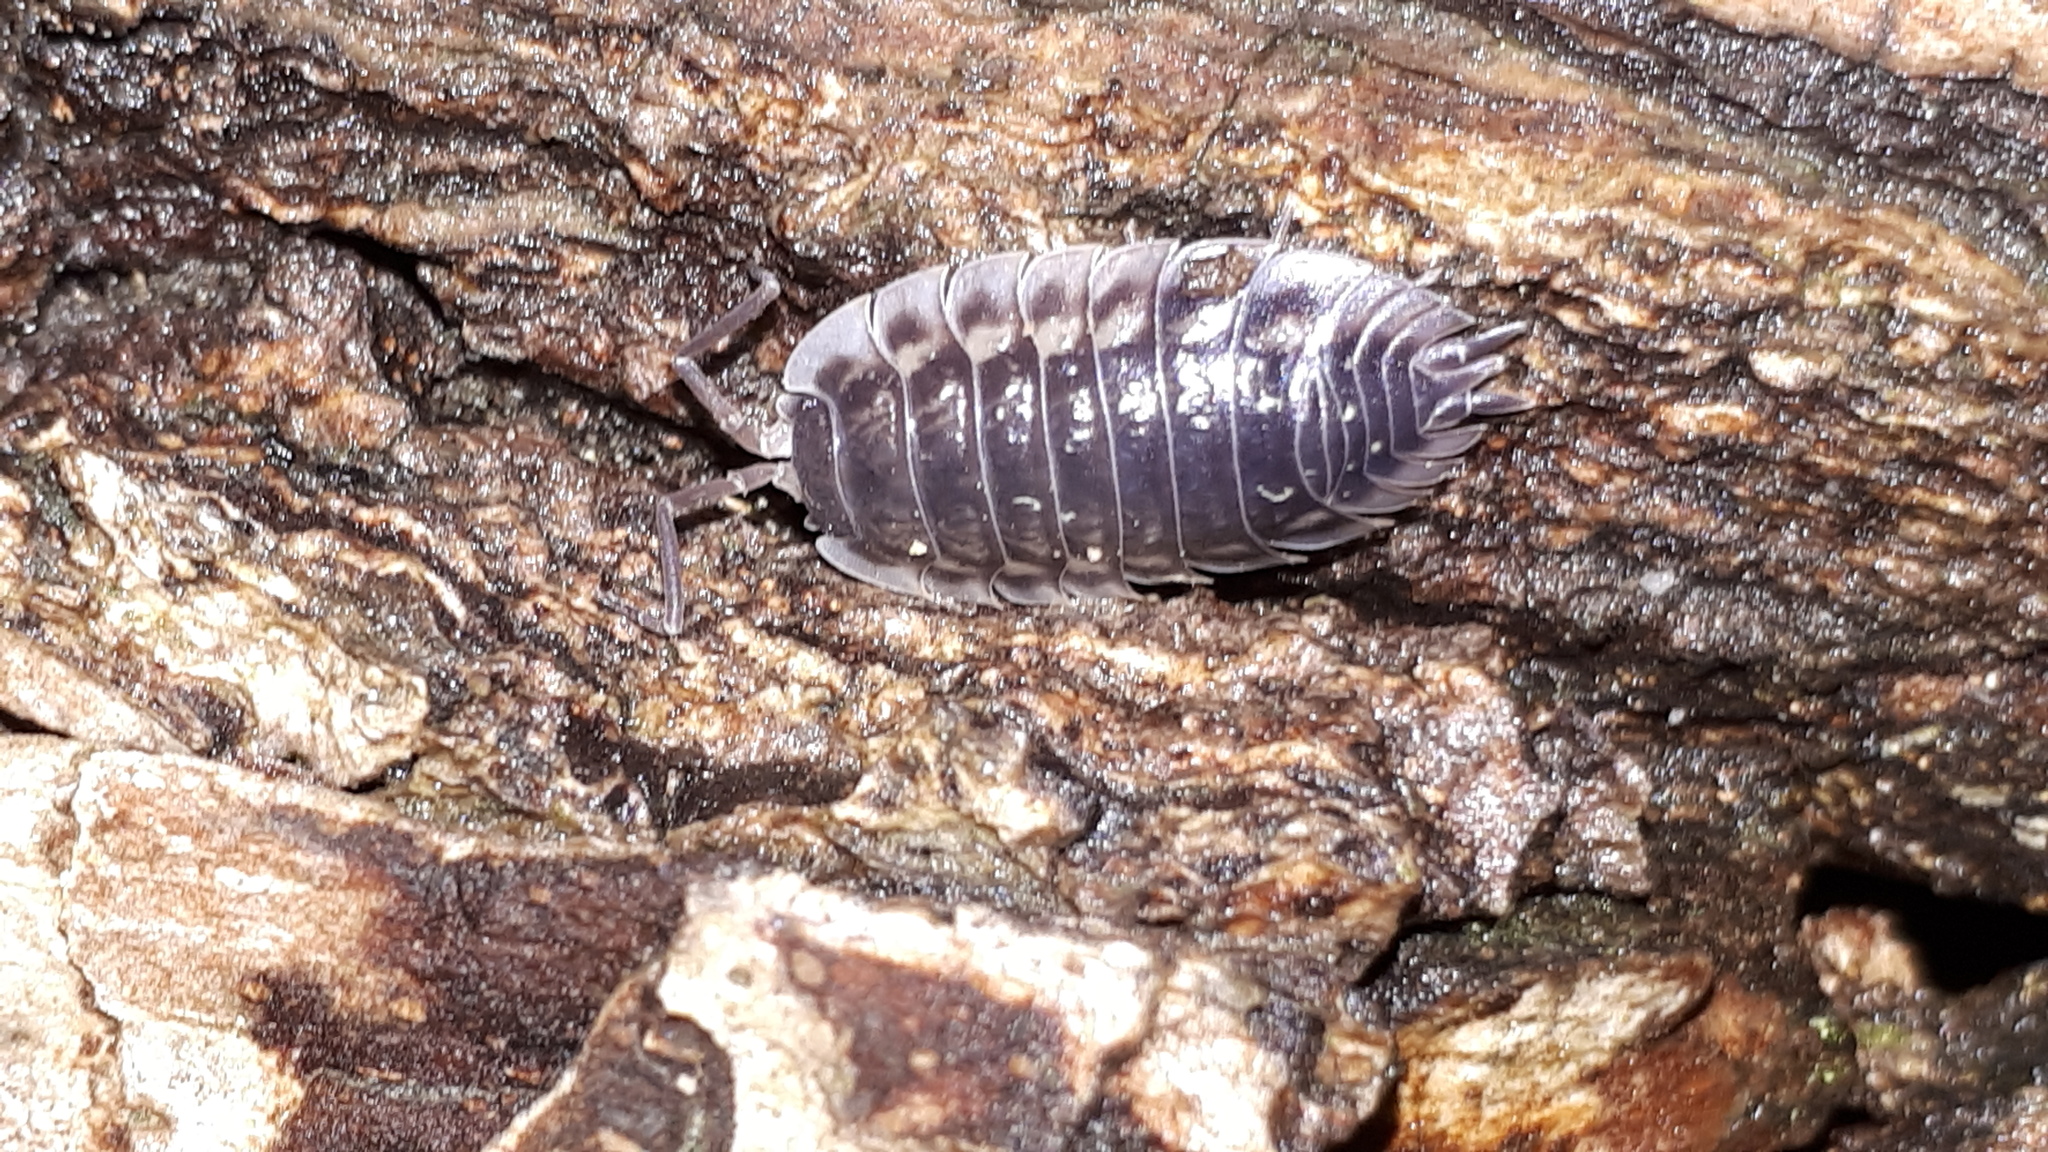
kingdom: Animalia
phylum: Arthropoda
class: Malacostraca
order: Isopoda
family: Oniscidae
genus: Oniscus
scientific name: Oniscus asellus
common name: Common shiny woodlouse
